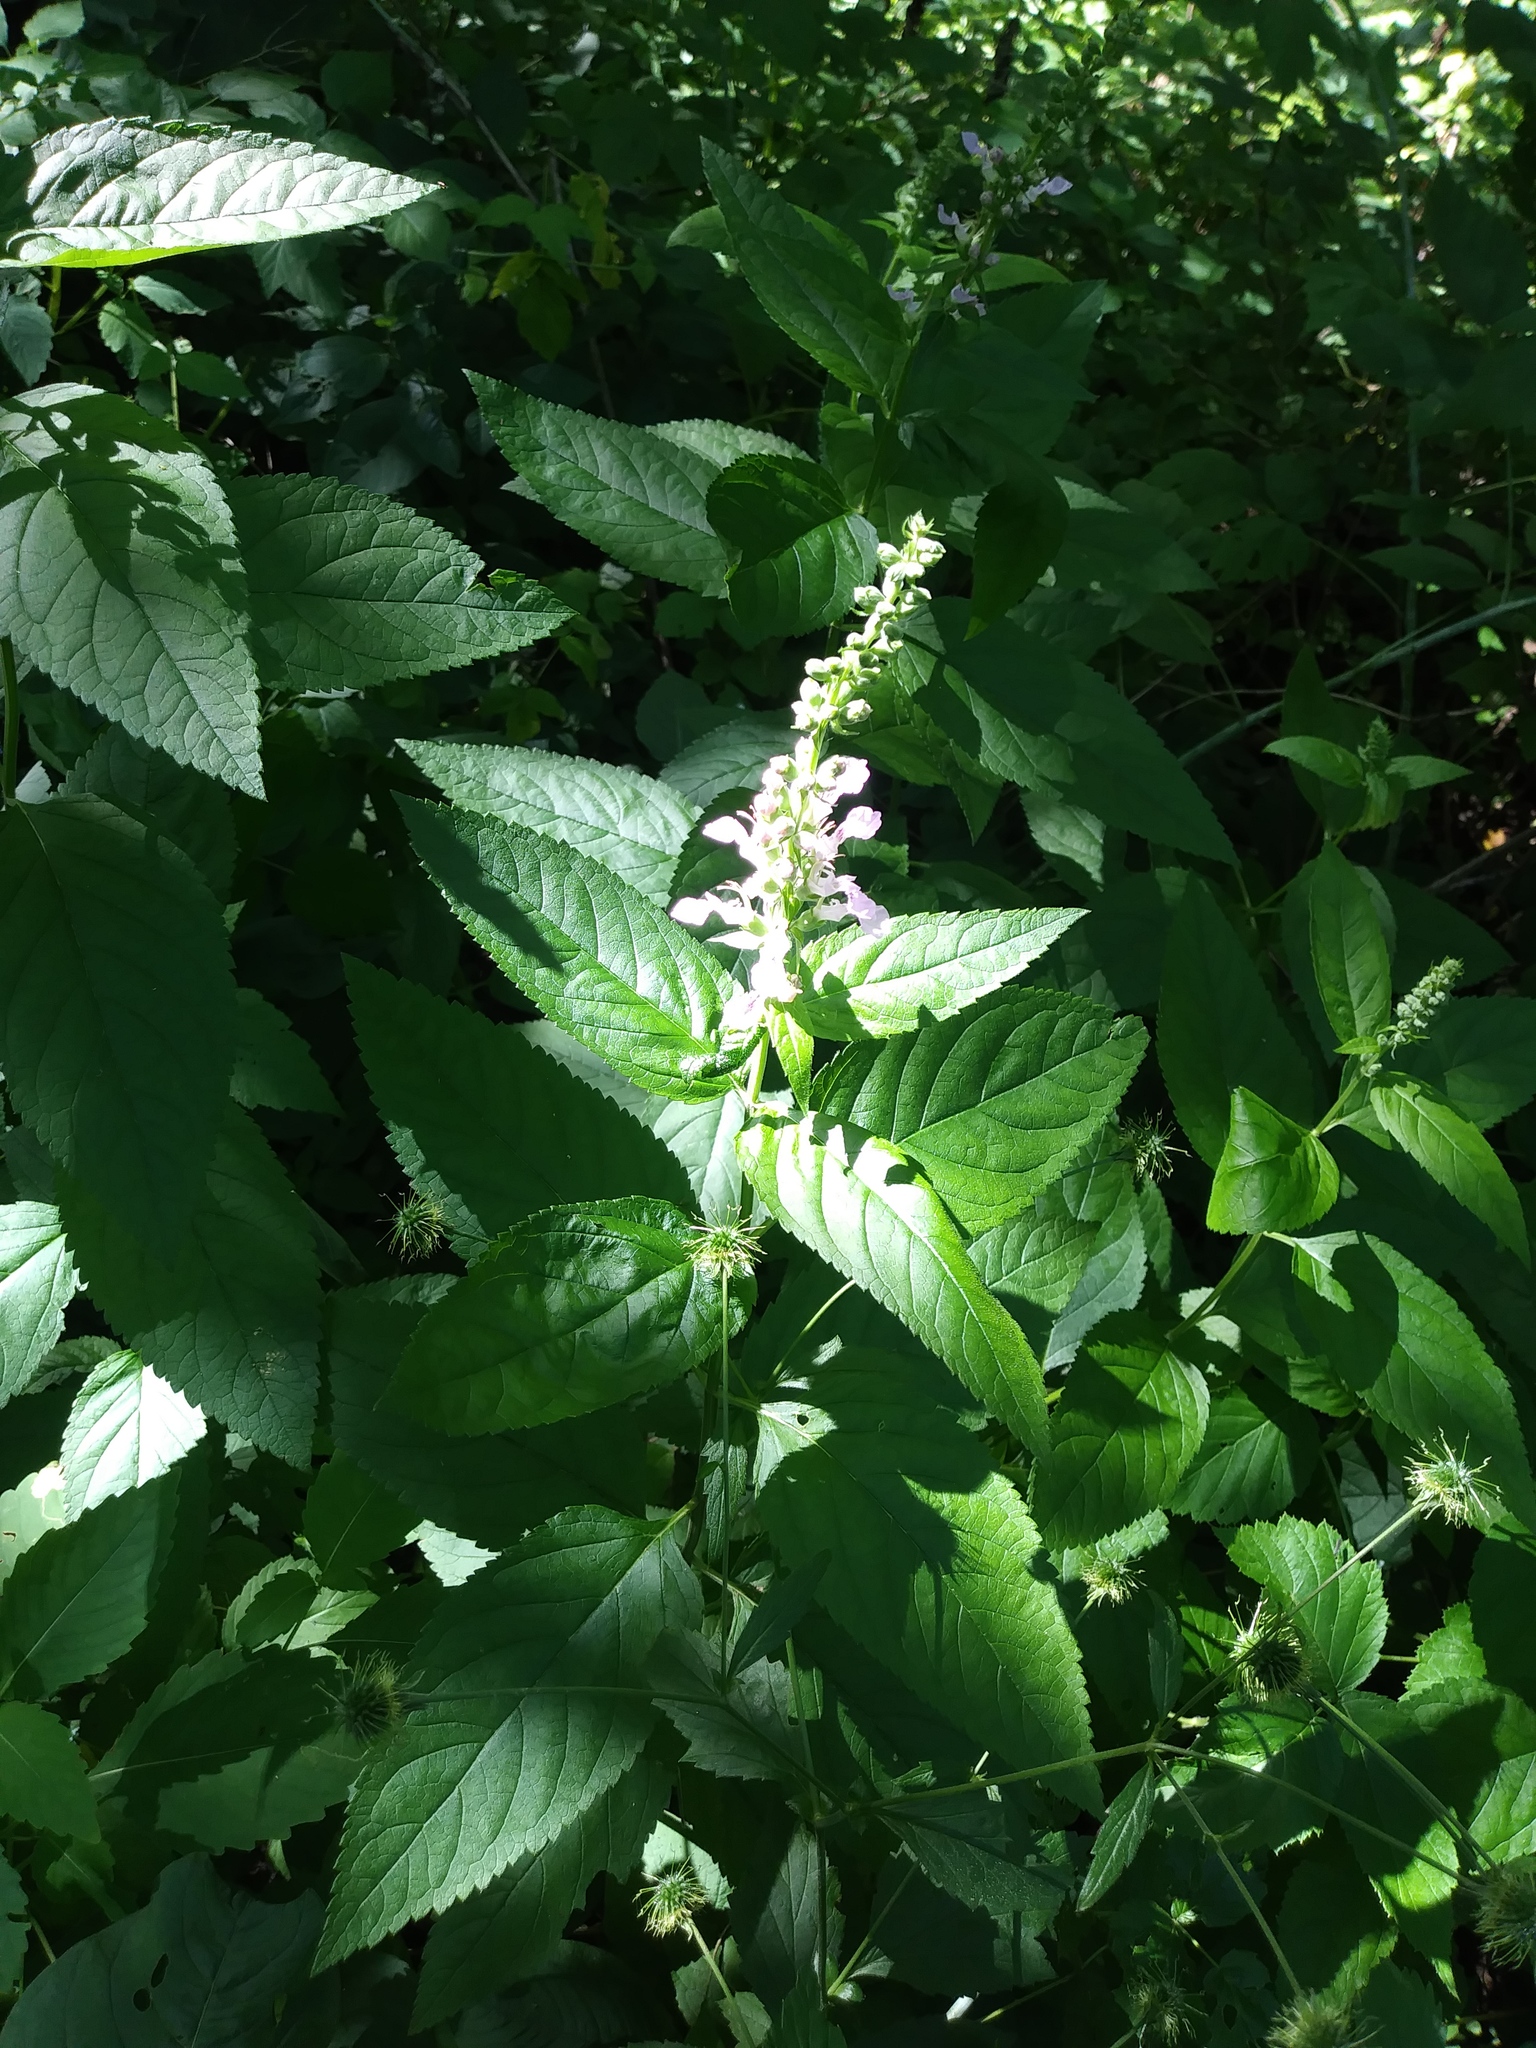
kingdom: Plantae
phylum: Tracheophyta
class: Magnoliopsida
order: Lamiales
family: Lamiaceae
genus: Teucrium
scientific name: Teucrium canadense
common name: American germander
